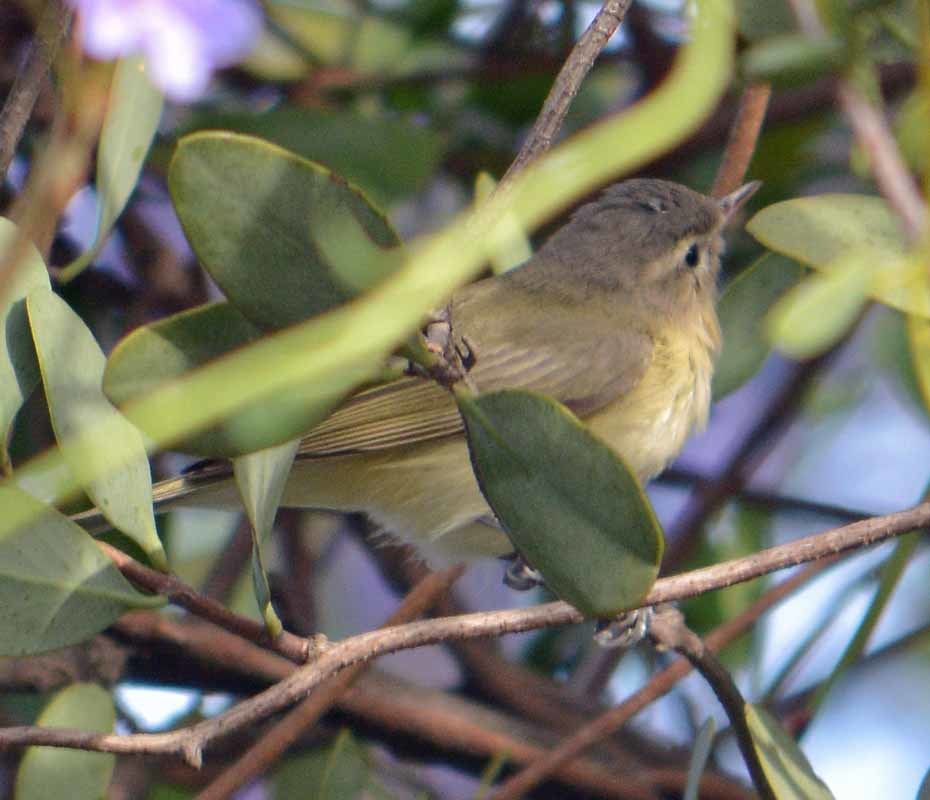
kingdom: Animalia
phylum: Chordata
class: Aves
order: Passeriformes
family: Vireonidae
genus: Vireo
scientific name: Vireo gilvus
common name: Warbling vireo
